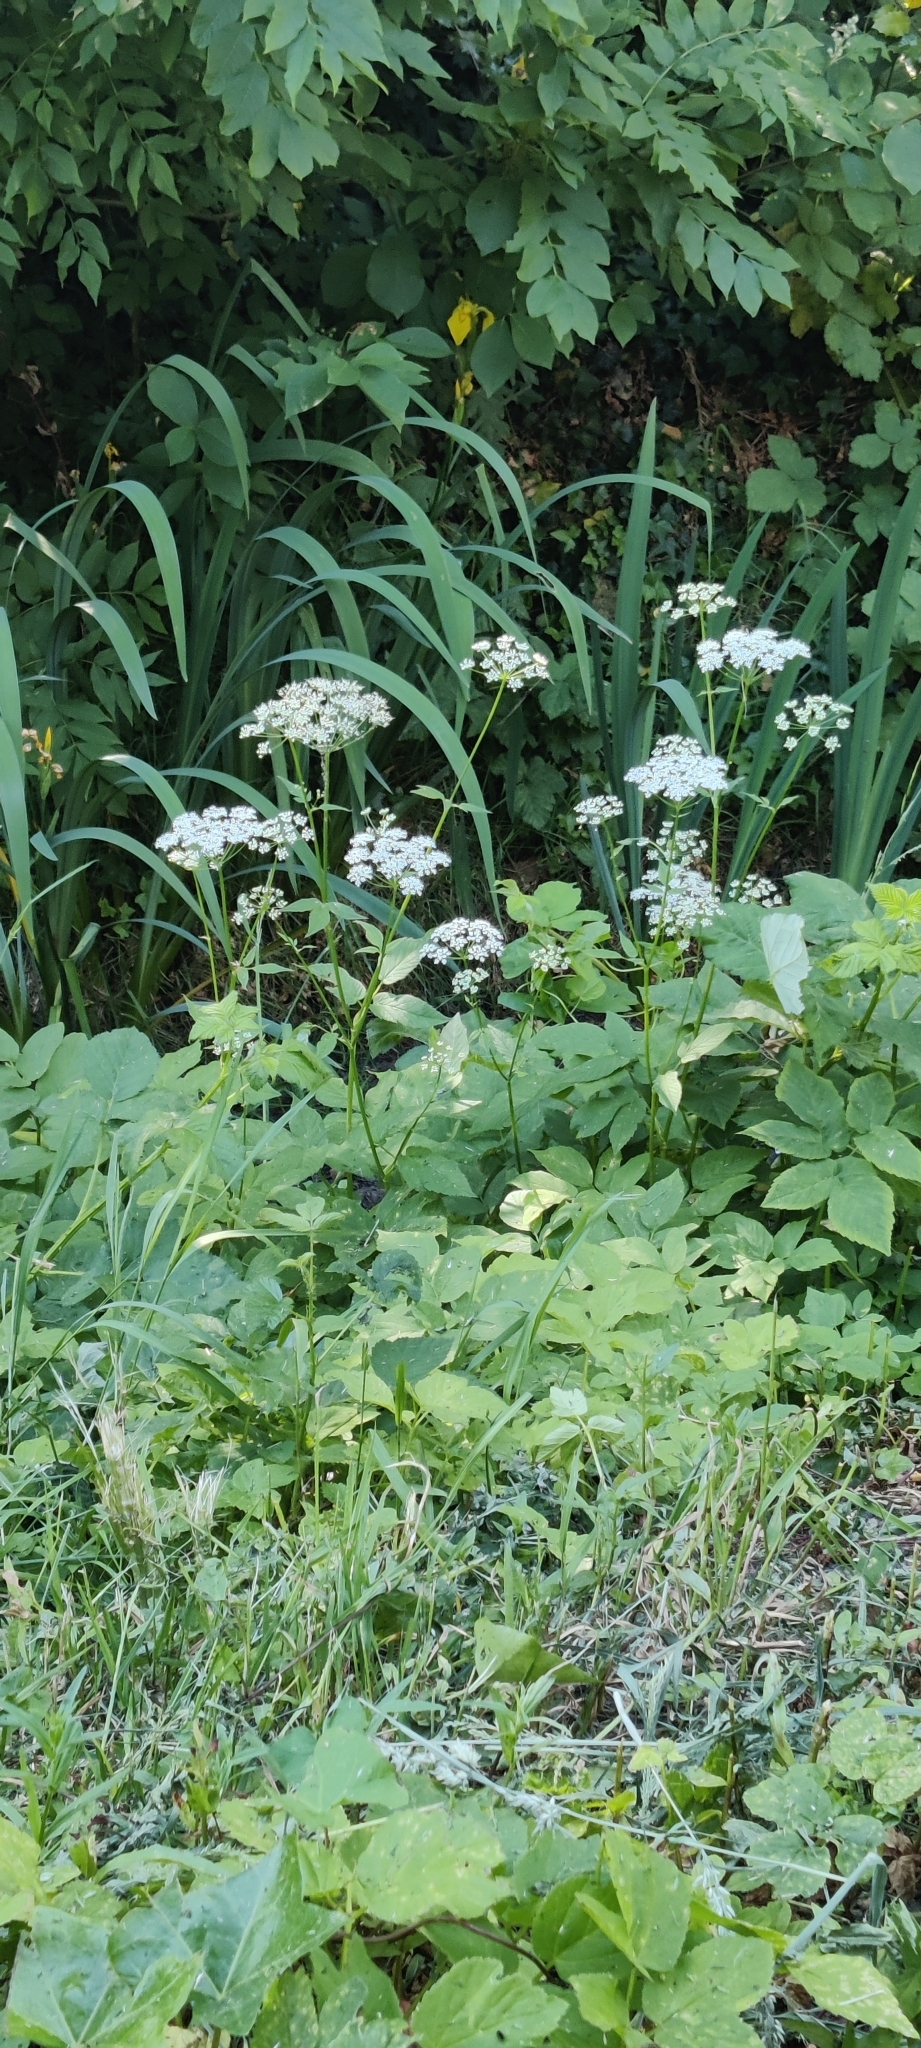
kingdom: Plantae
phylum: Tracheophyta
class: Magnoliopsida
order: Apiales
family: Apiaceae
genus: Aegopodium
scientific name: Aegopodium podagraria
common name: Ground-elder
